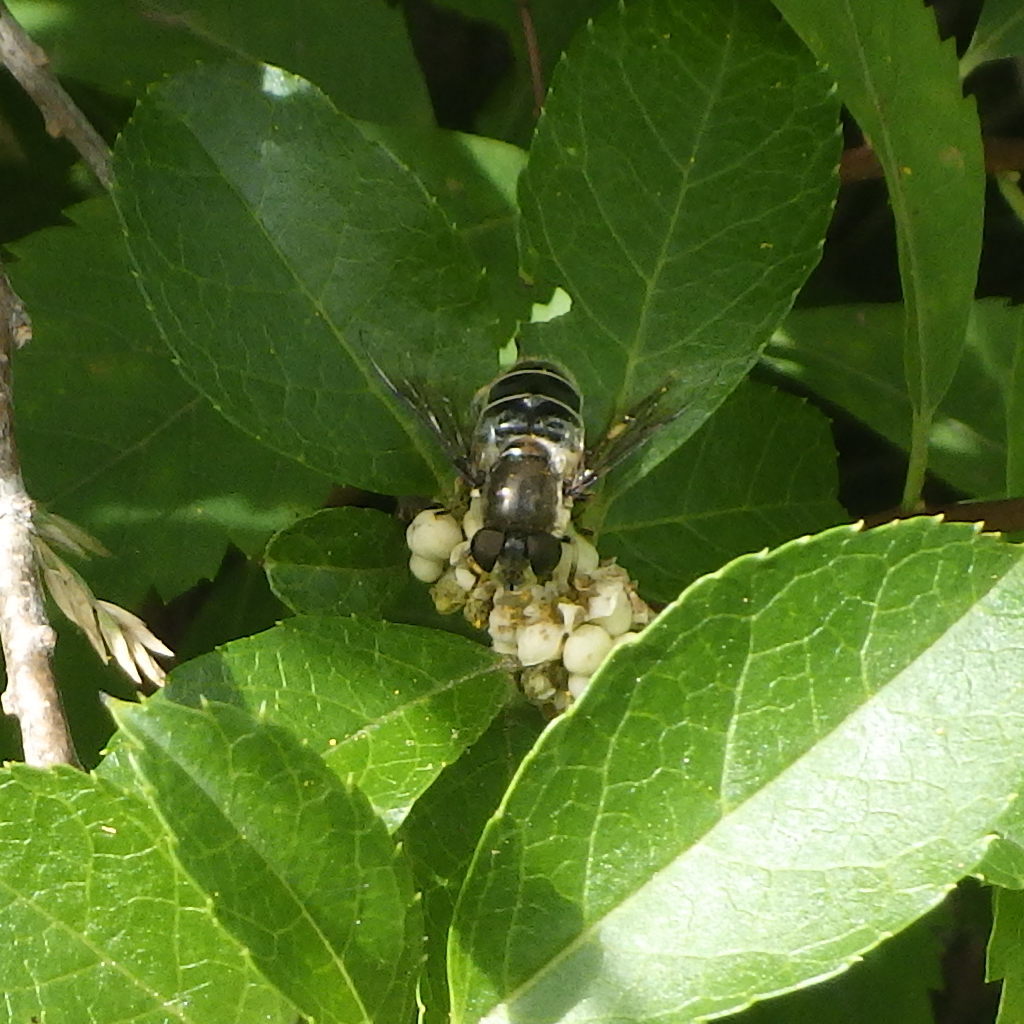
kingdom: Animalia
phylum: Arthropoda
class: Insecta
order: Diptera
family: Syrphidae
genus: Eristalis
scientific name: Eristalis dimidiata
